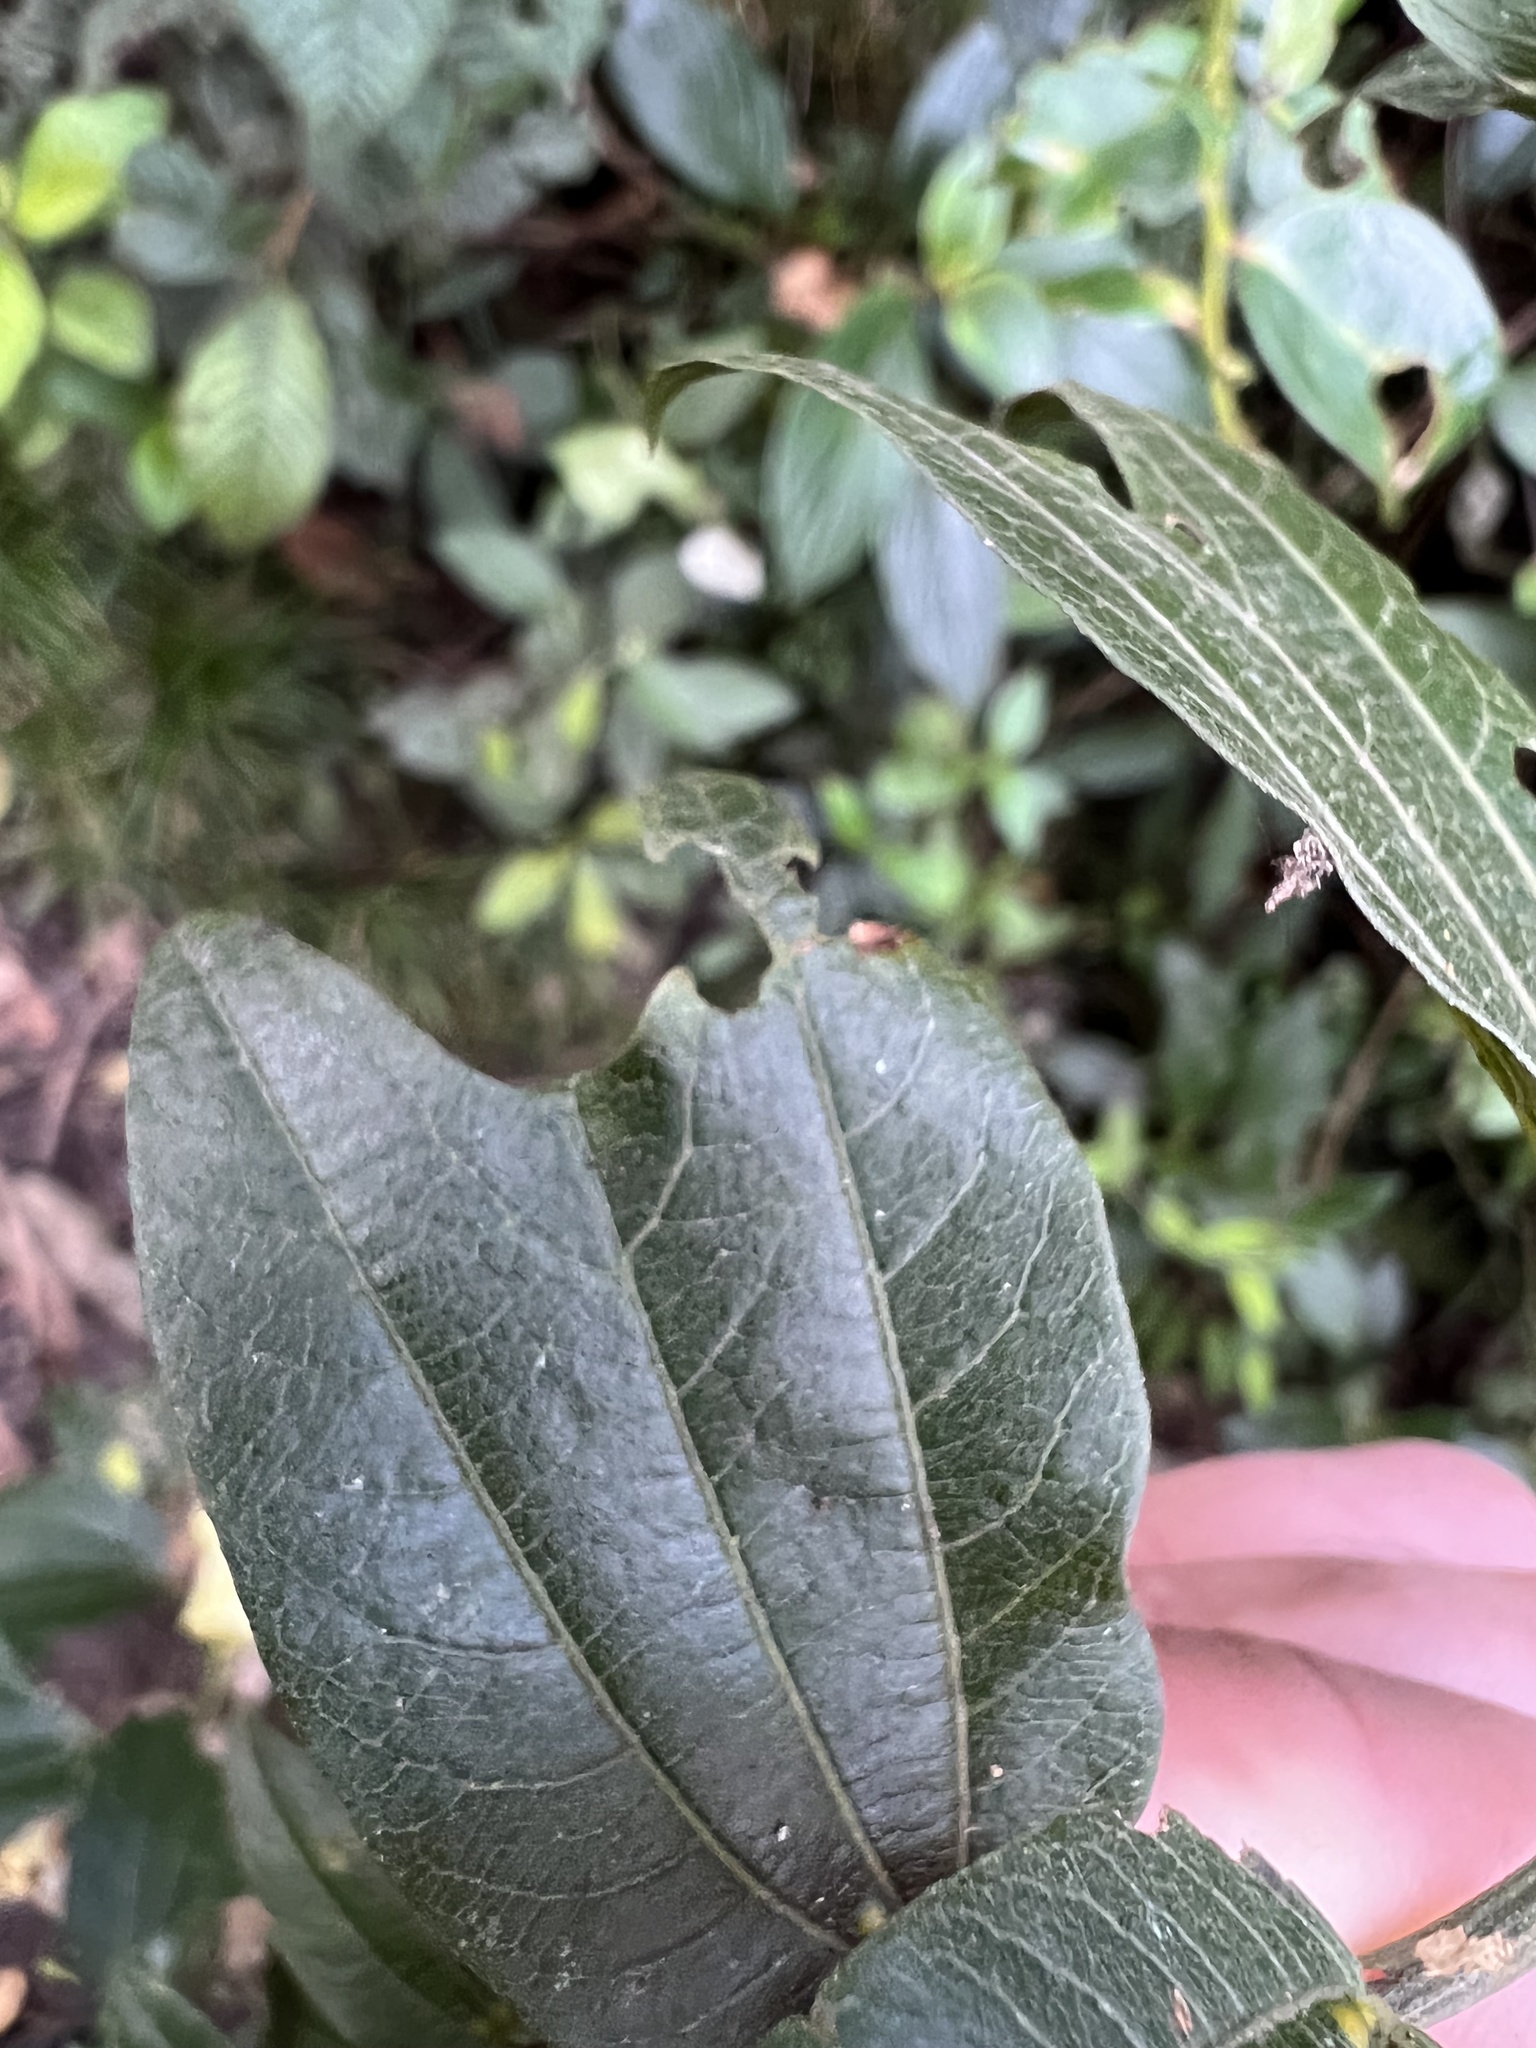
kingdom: Plantae
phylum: Tracheophyta
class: Magnoliopsida
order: Malpighiales
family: Passifloraceae
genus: Passiflora
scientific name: Passiflora chelidonea
